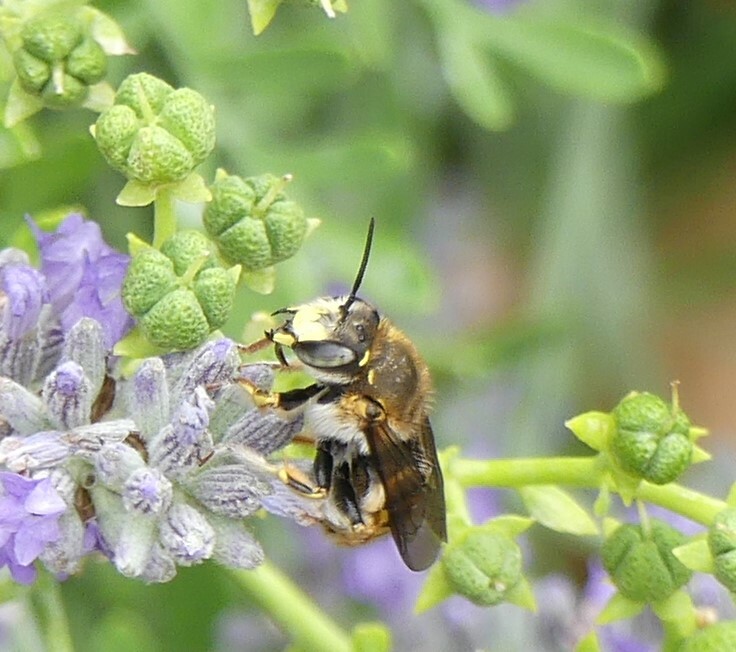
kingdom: Animalia
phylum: Arthropoda
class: Insecta
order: Hymenoptera
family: Megachilidae
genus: Anthidium
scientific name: Anthidium manicatum
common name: Wool carder bee
